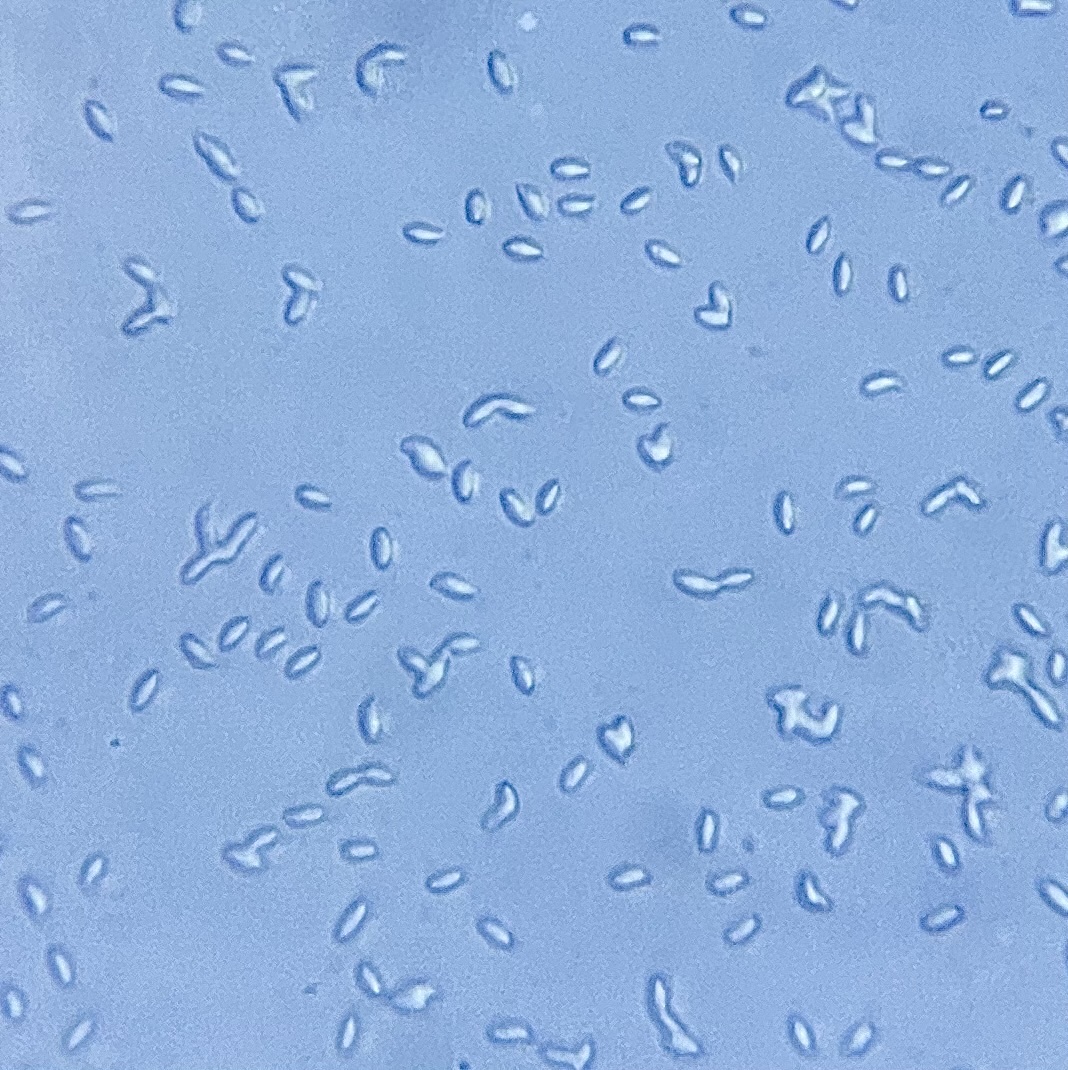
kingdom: Fungi
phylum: Basidiomycota
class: Agaricomycetes
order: Agaricales
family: Pleurotaceae
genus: Pleurotus
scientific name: Pleurotus pulmonarius
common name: Pale oyster
